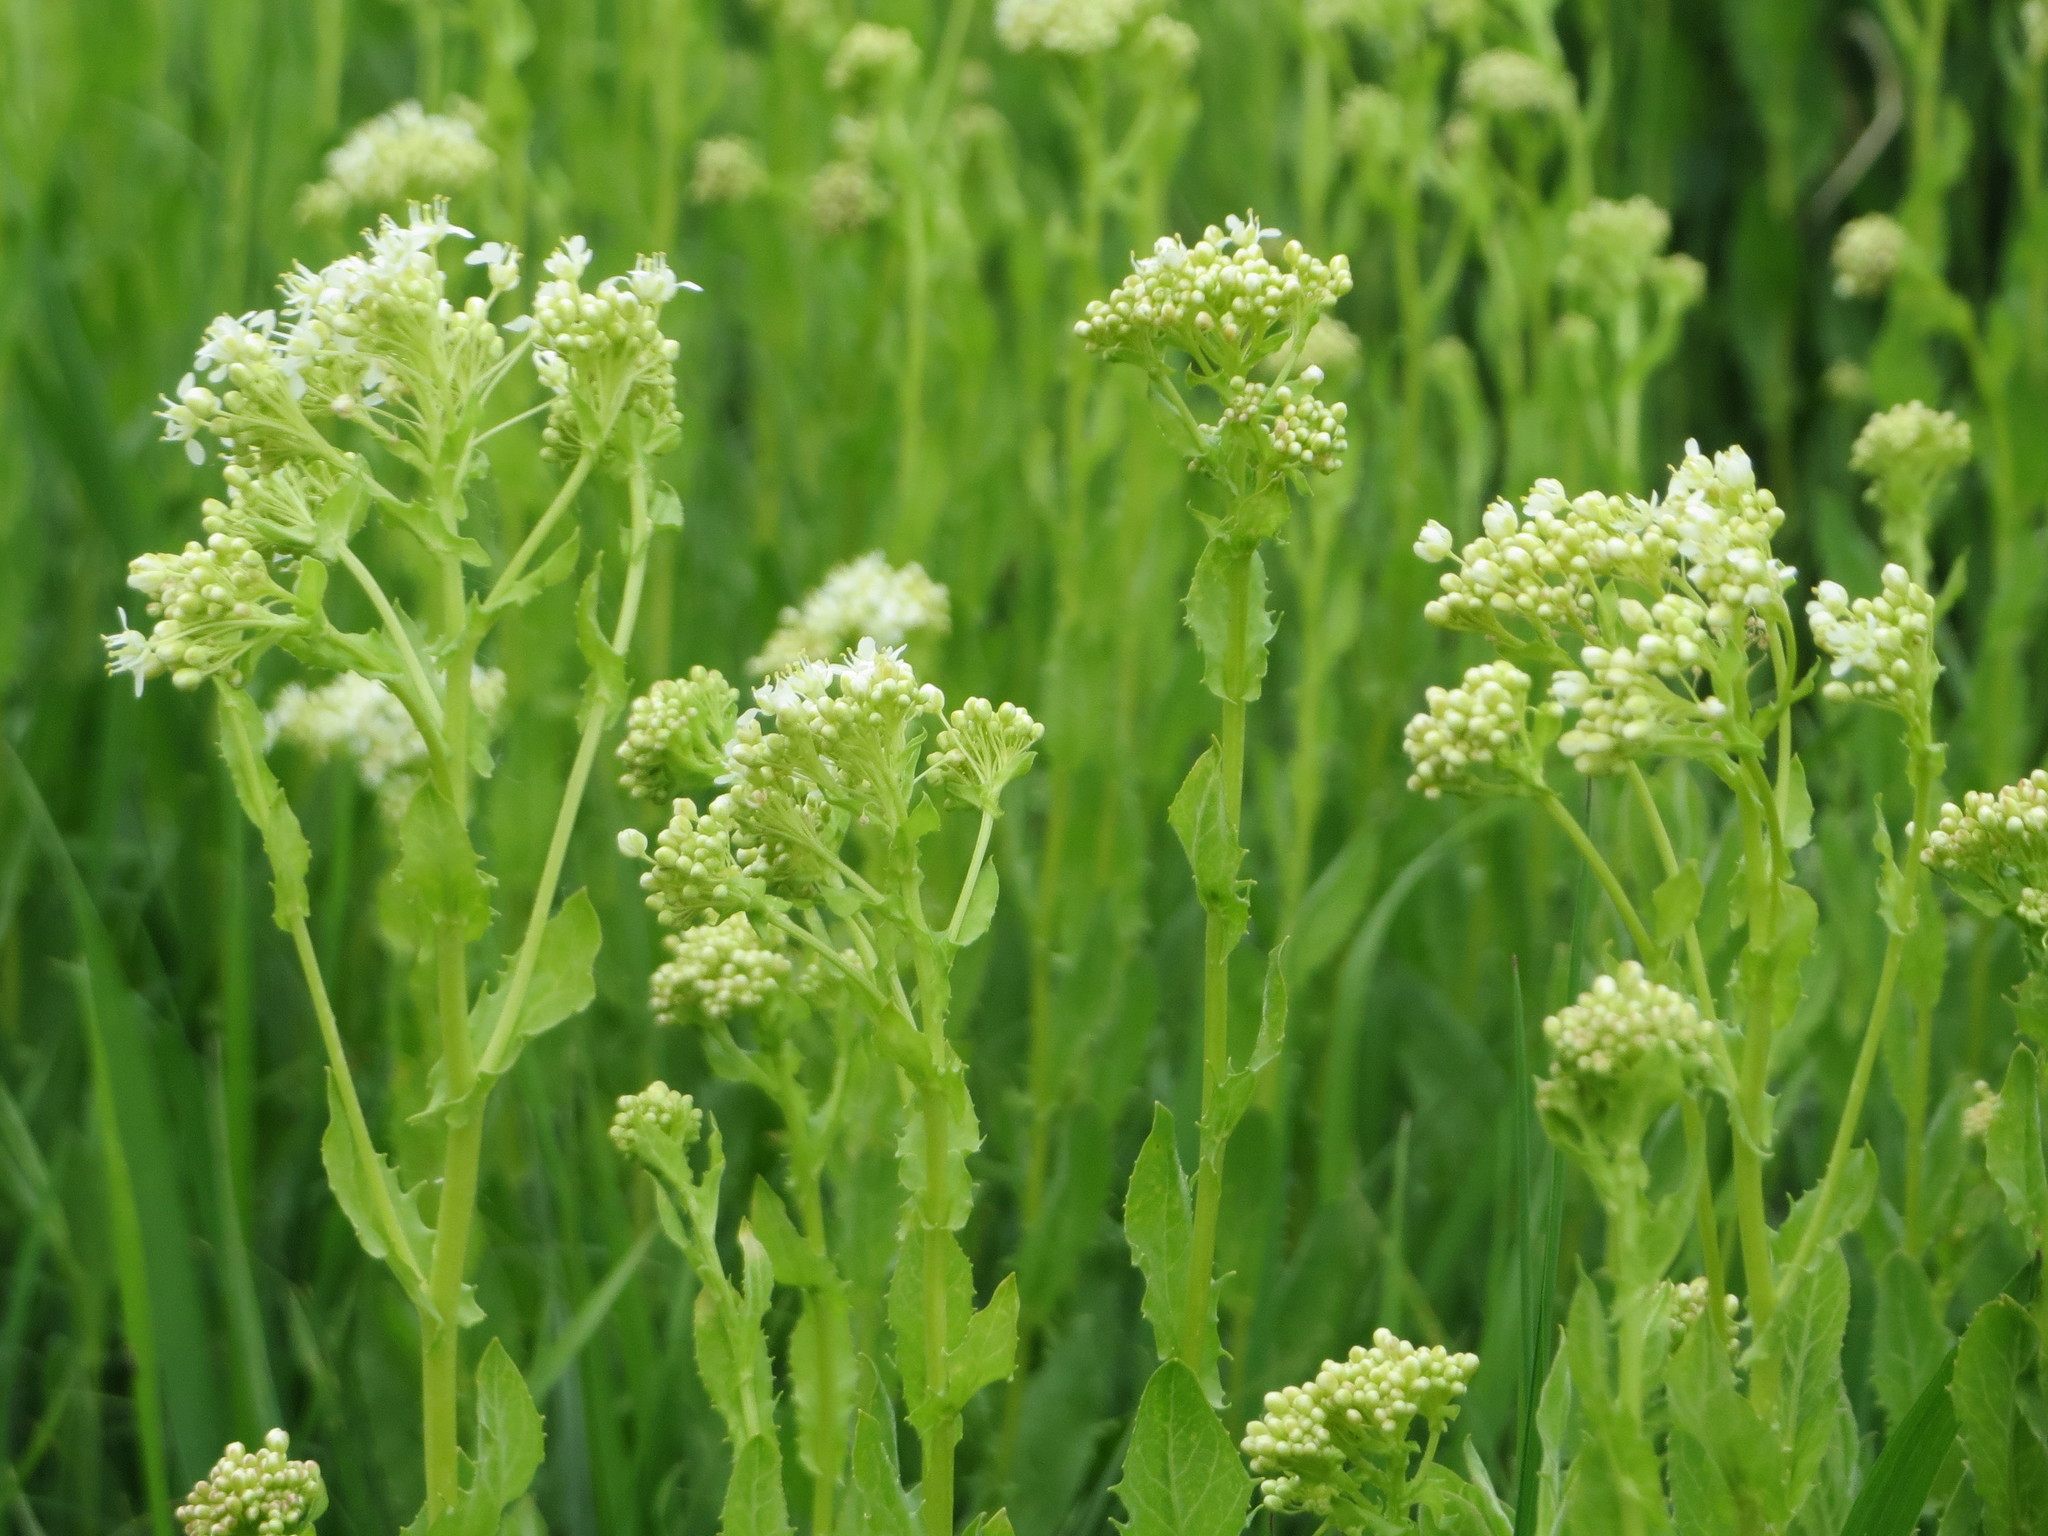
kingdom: Plantae
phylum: Tracheophyta
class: Magnoliopsida
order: Brassicales
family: Brassicaceae
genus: Lepidium
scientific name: Lepidium draba
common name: Hoary cress
